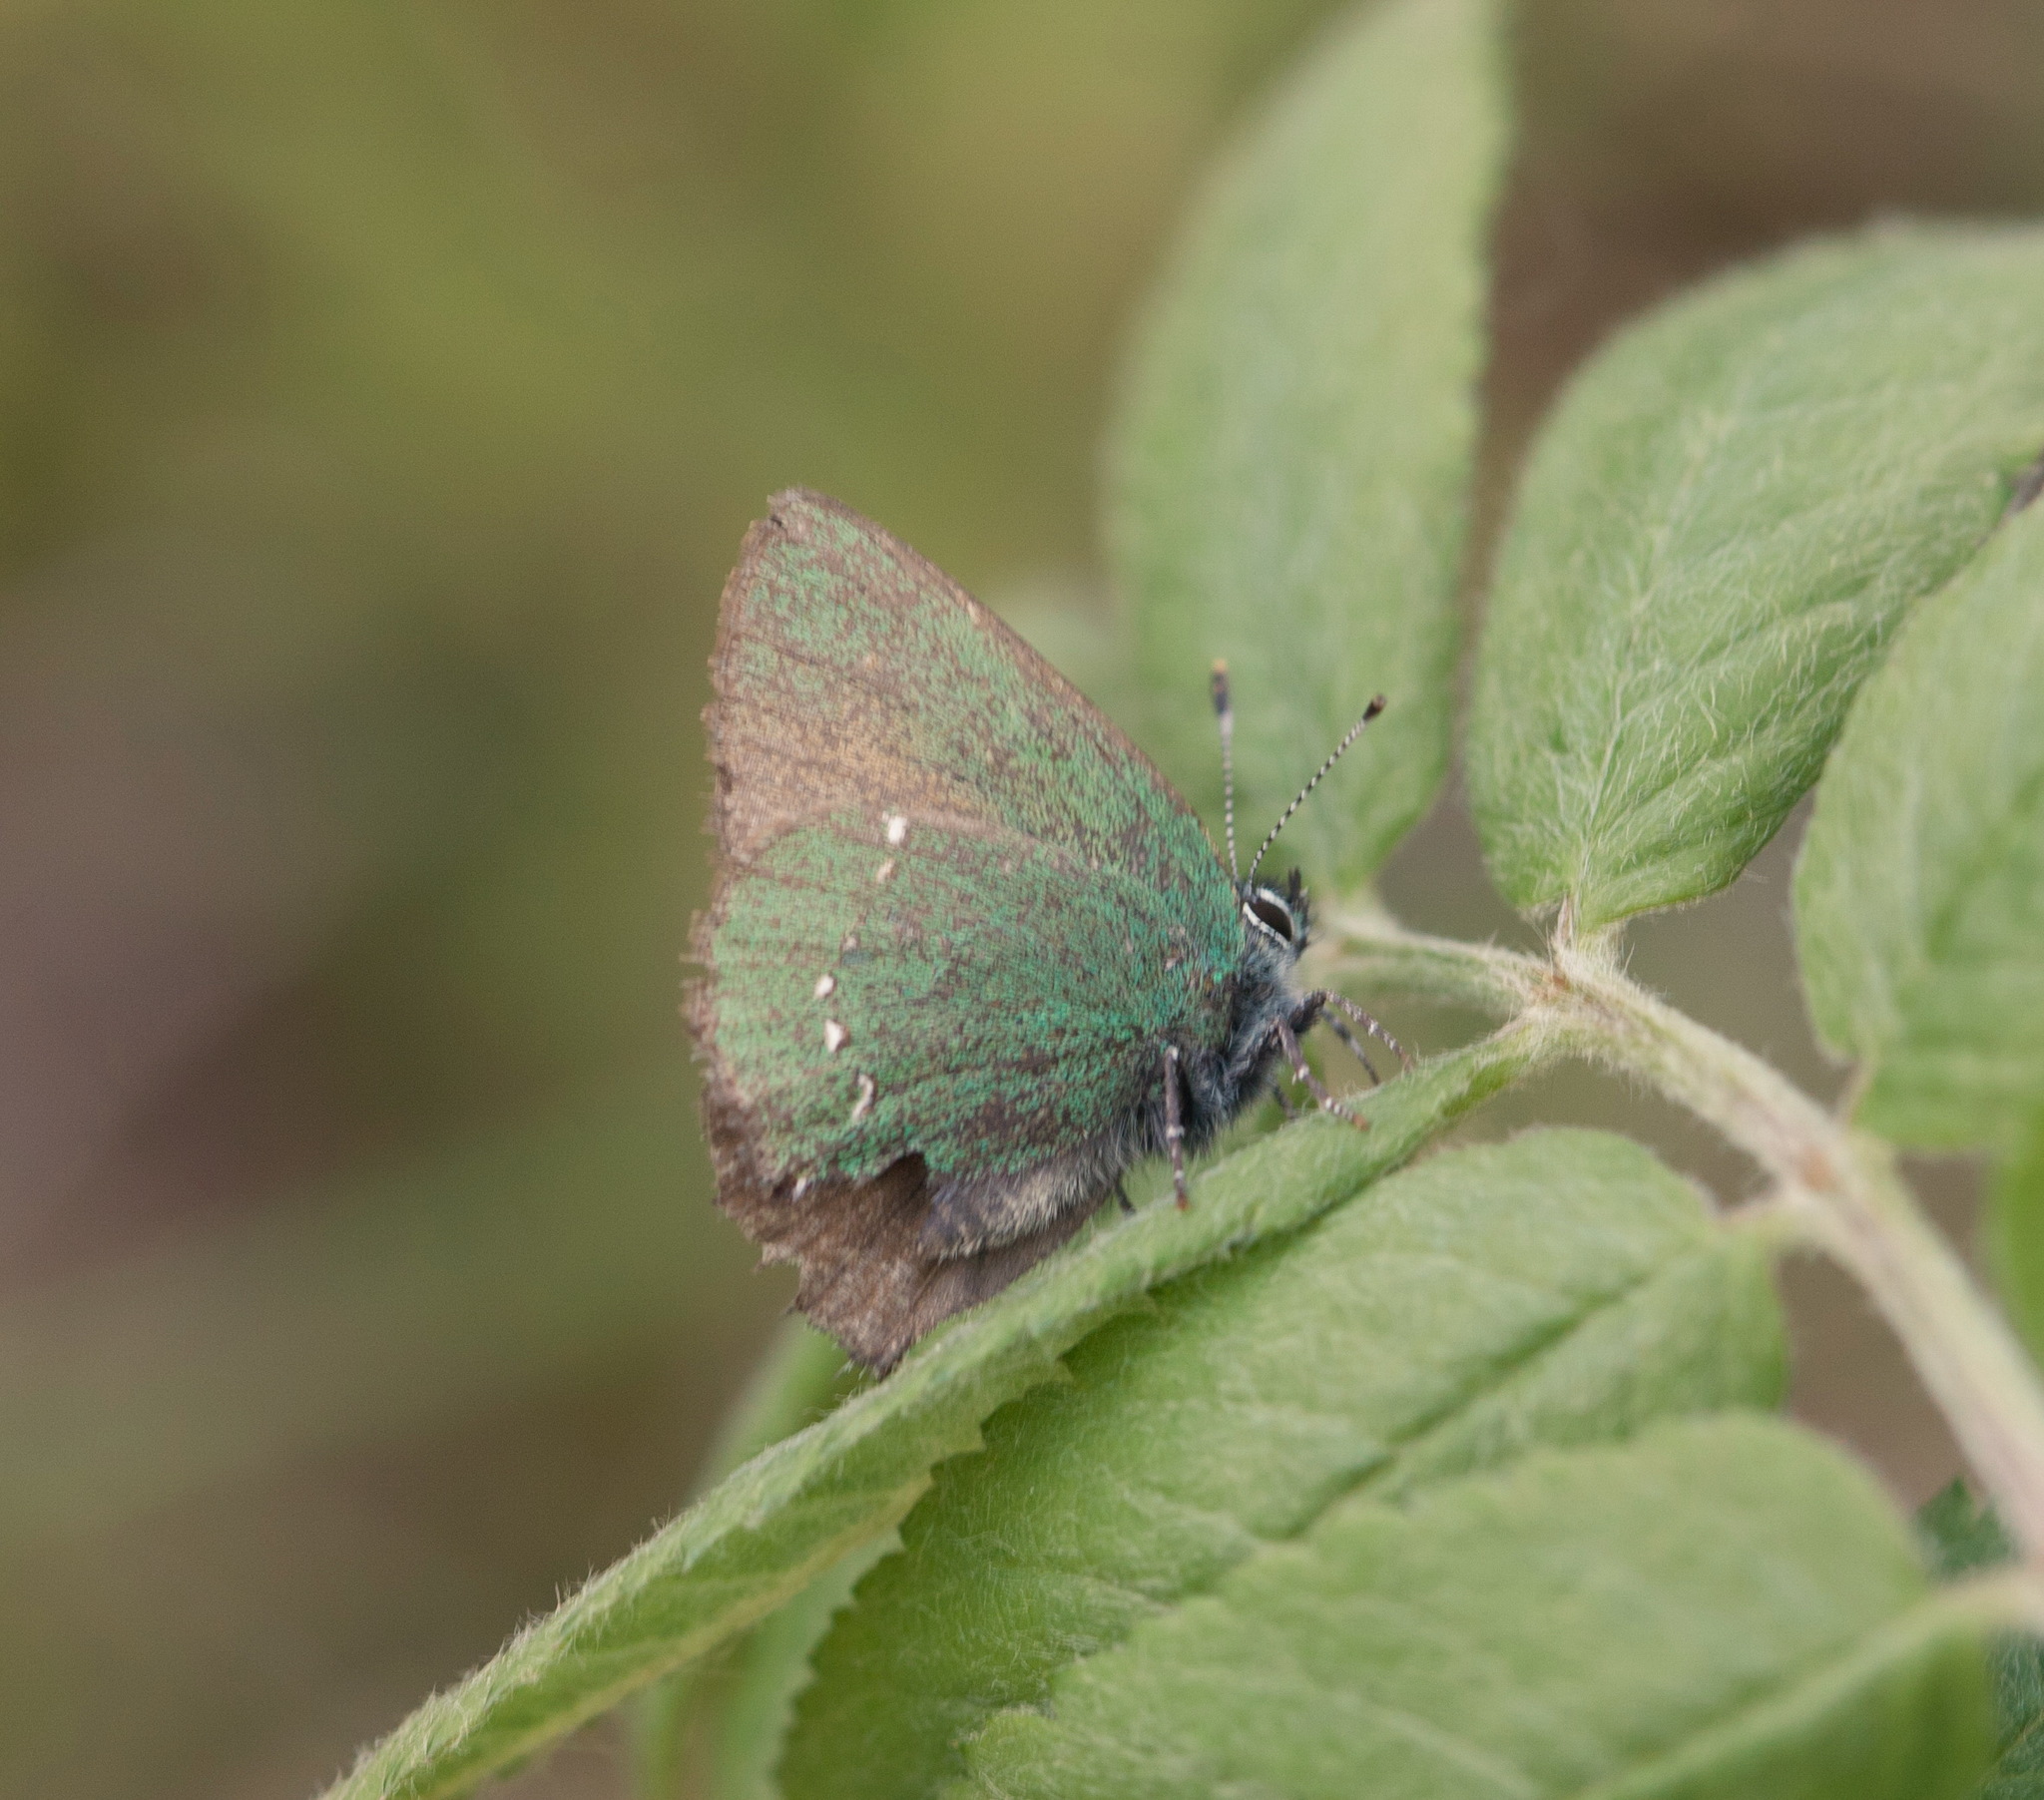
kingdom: Animalia
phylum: Arthropoda
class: Insecta
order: Lepidoptera
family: Lycaenidae
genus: Callophrys
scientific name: Callophrys rubi
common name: Green hairstreak
